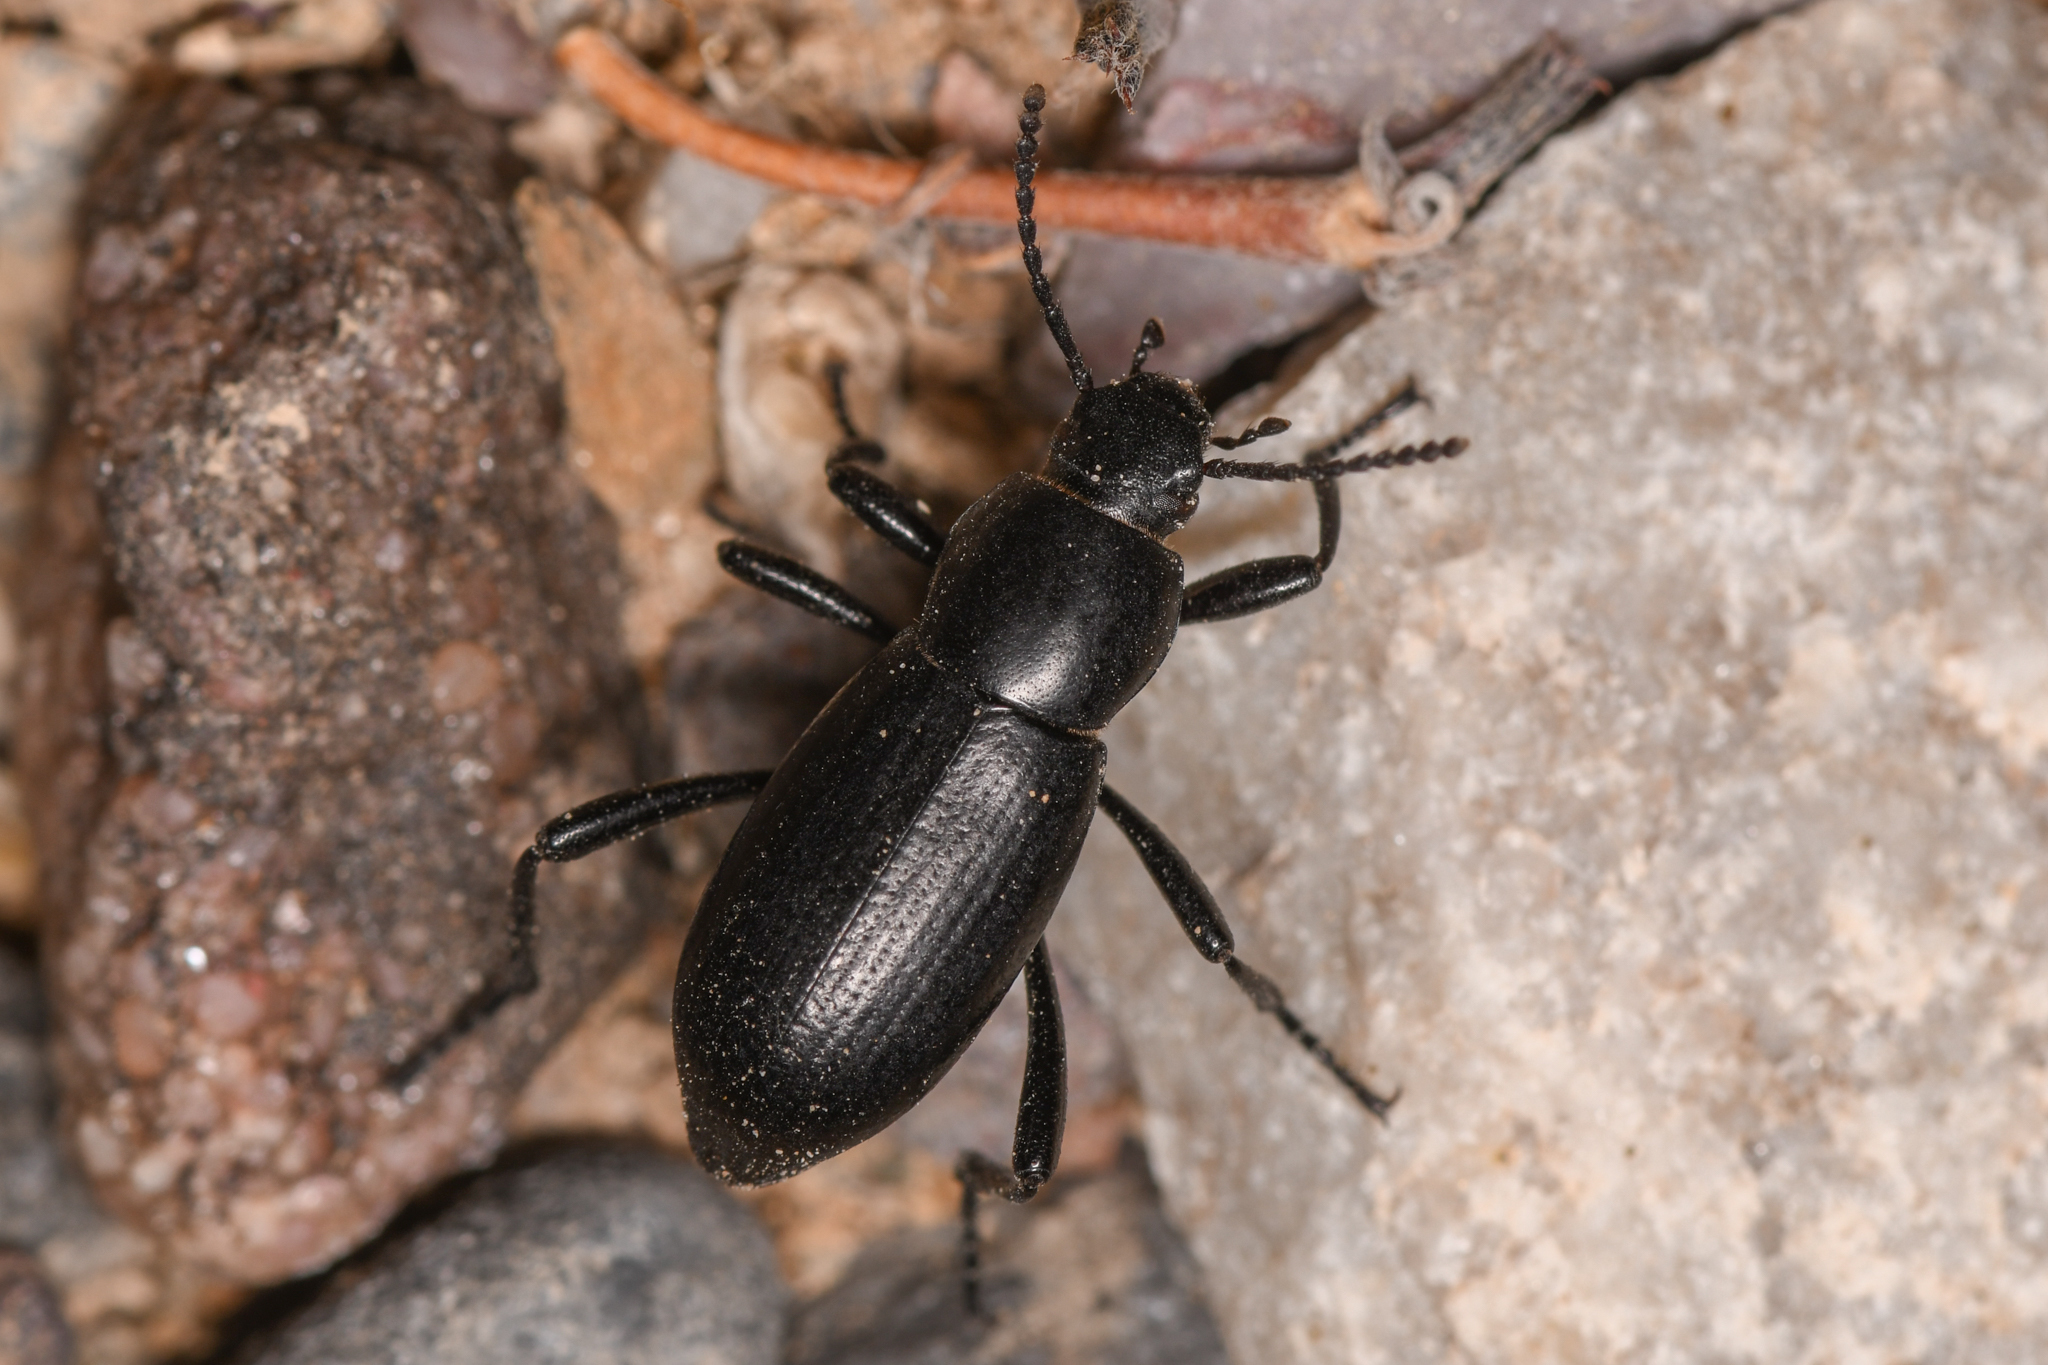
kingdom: Animalia
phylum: Arthropoda
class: Insecta
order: Coleoptera
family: Tenebrionidae
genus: Eleodes
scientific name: Eleodes carbonaria
